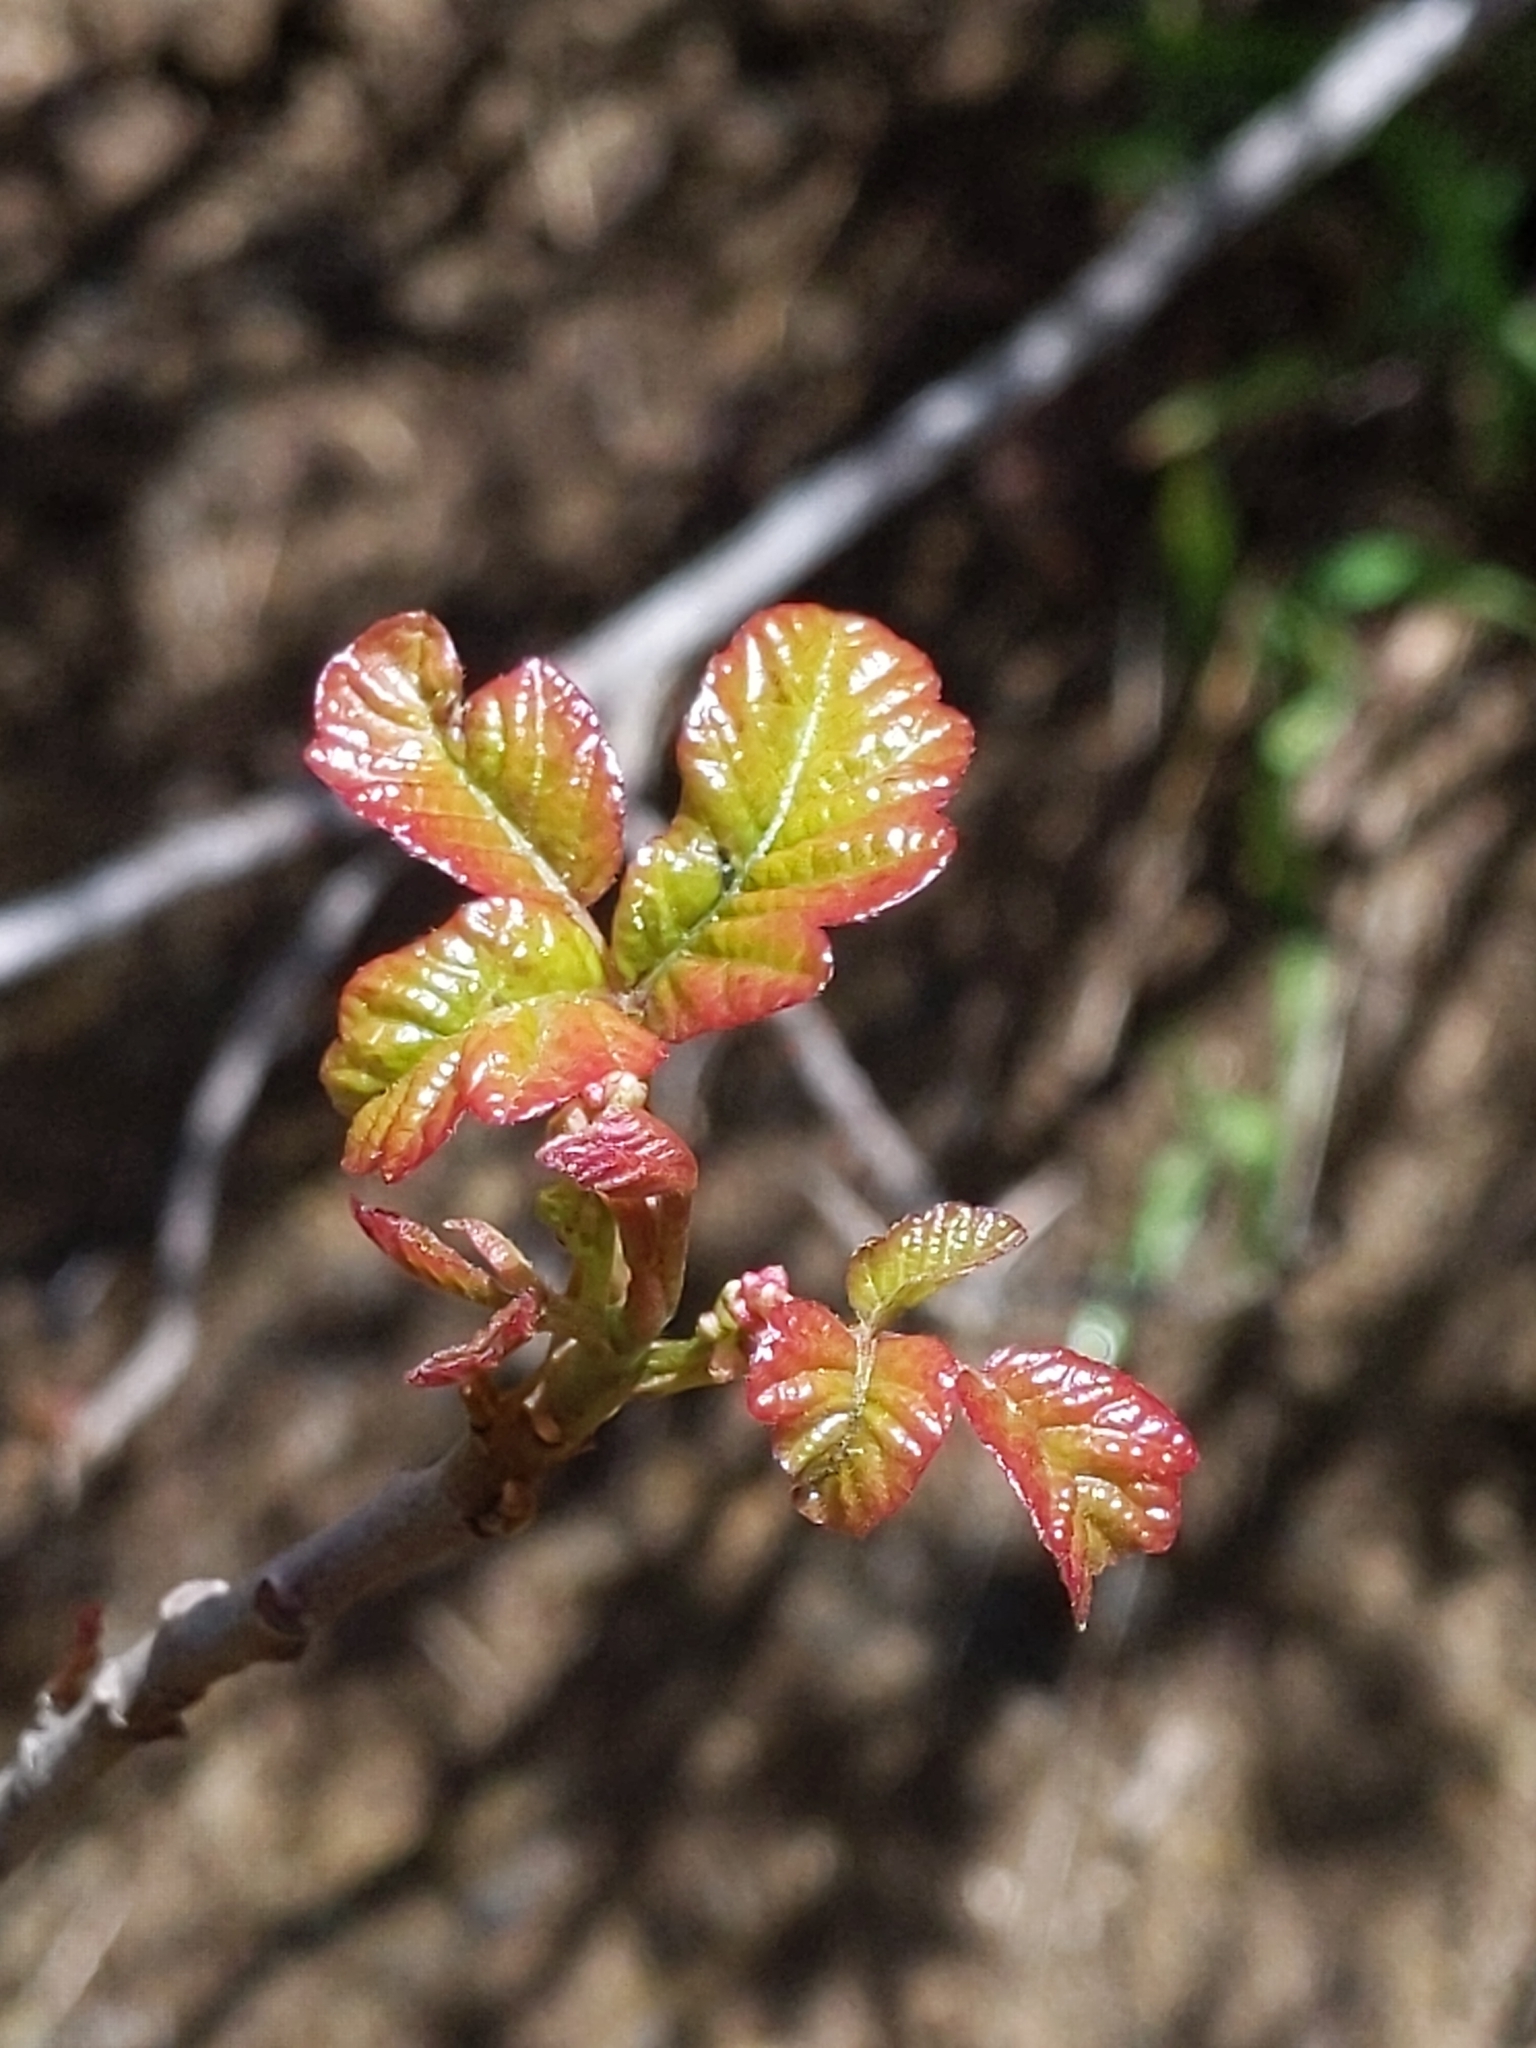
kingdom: Plantae
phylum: Tracheophyta
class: Magnoliopsida
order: Sapindales
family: Anacardiaceae
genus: Toxicodendron
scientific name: Toxicodendron diversilobum
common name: Pacific poison-oak
